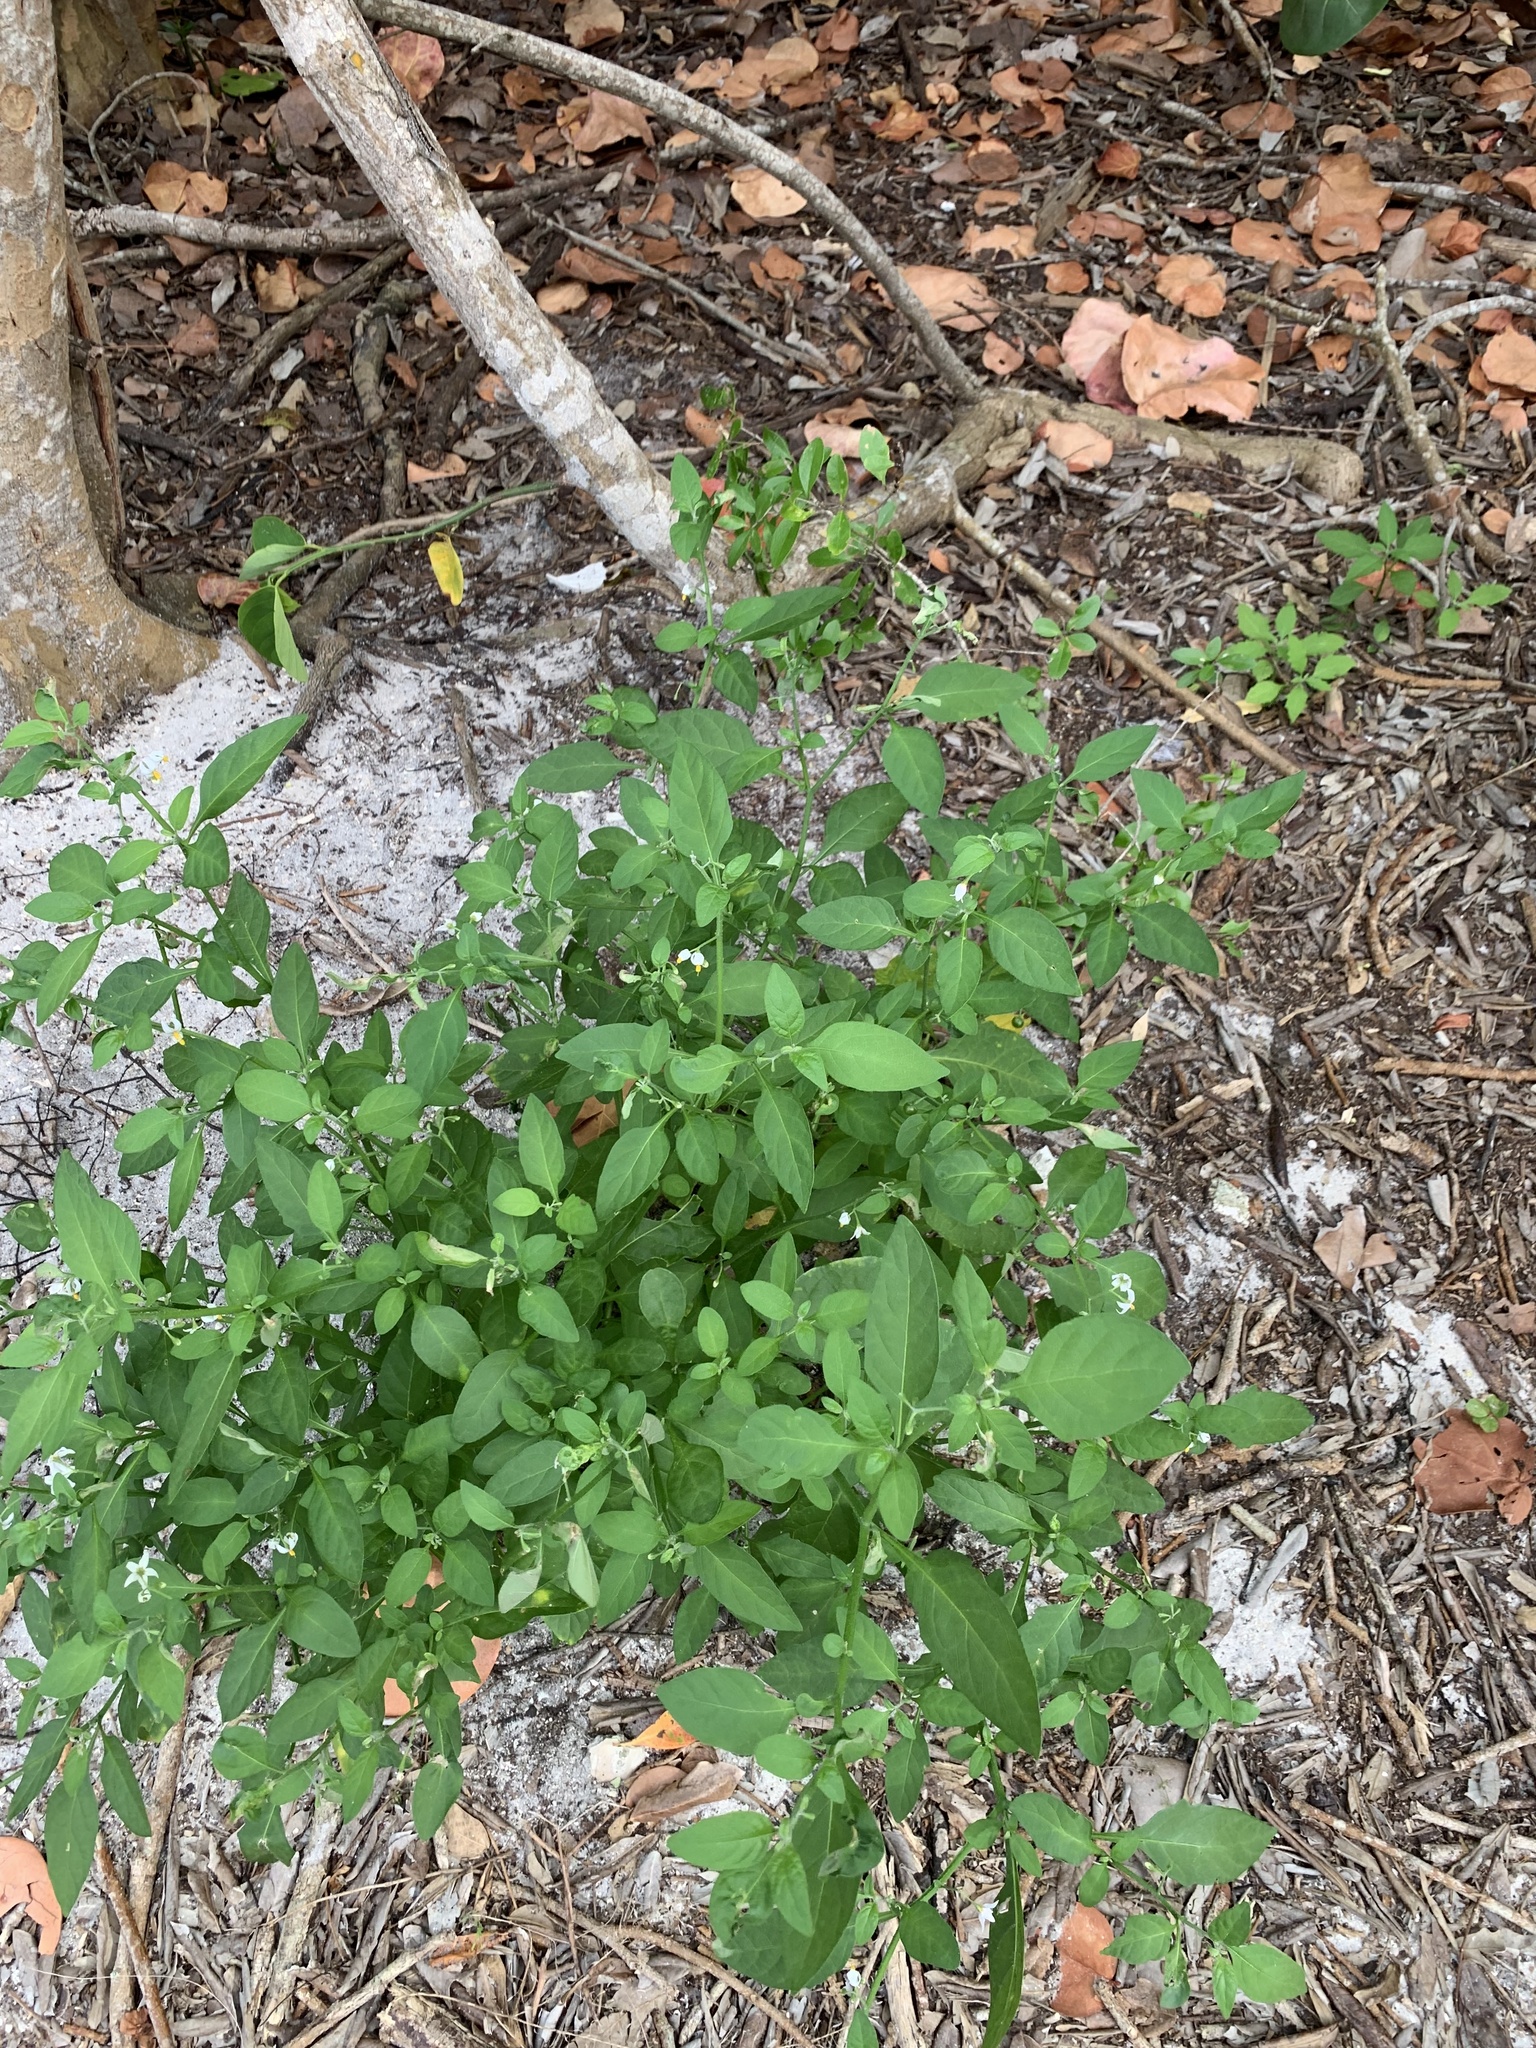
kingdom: Plantae
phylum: Tracheophyta
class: Magnoliopsida
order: Solanales
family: Solanaceae
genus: Solanum
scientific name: Solanum pseudogracile
